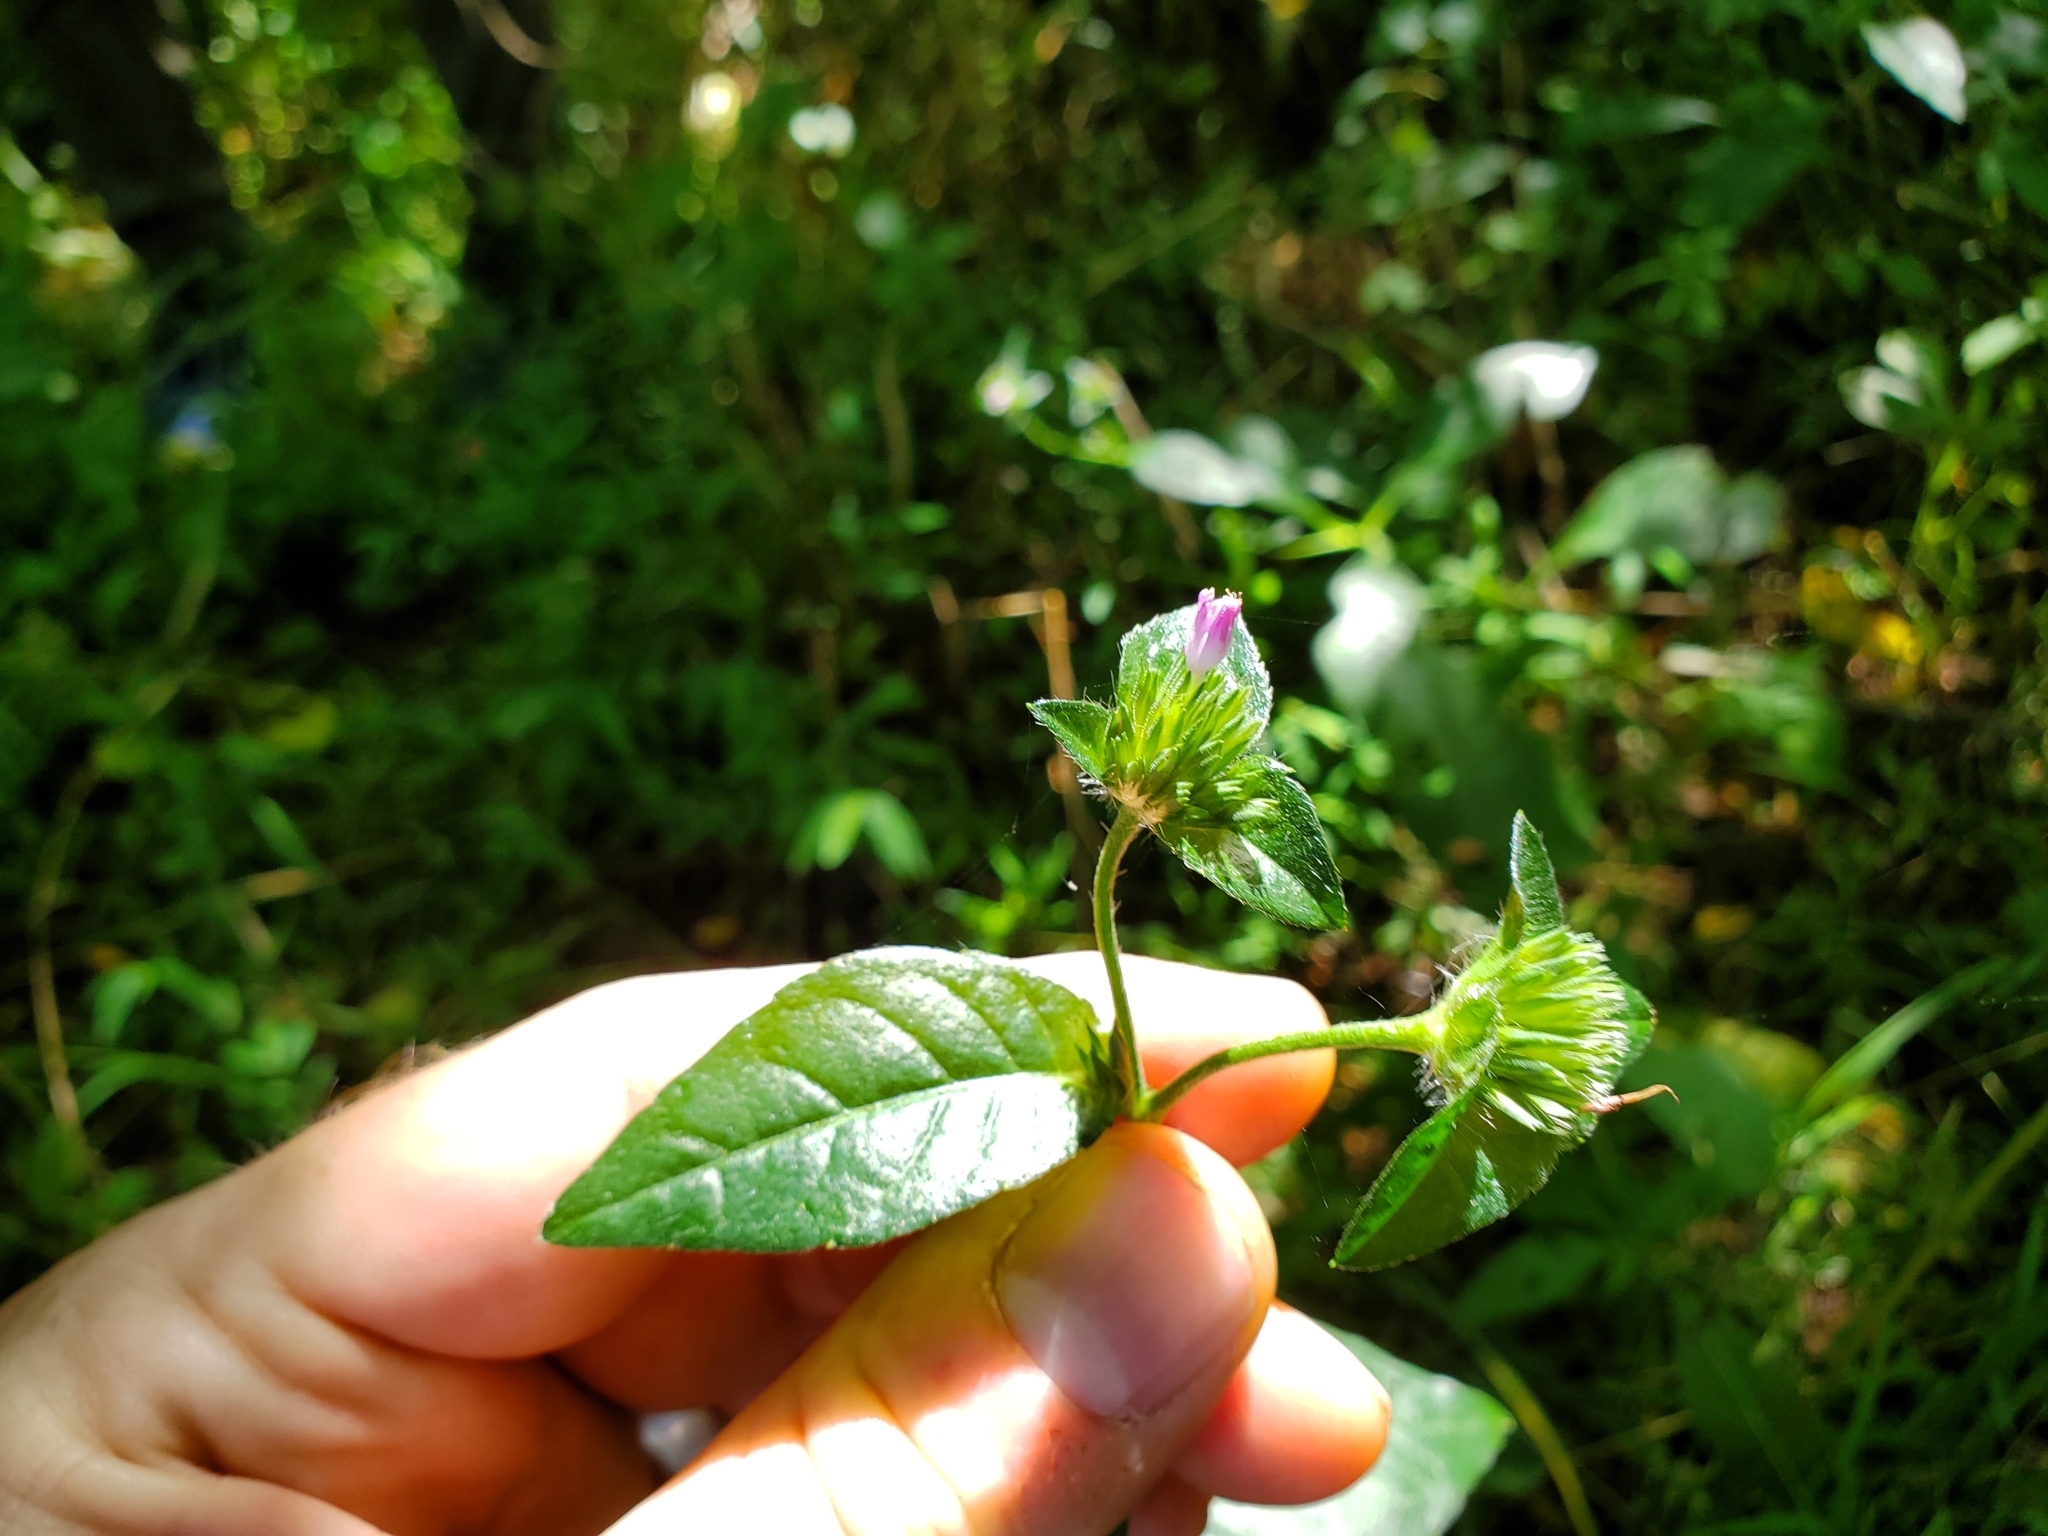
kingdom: Plantae
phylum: Tracheophyta
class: Magnoliopsida
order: Asterales
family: Asteraceae
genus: Elephantopus
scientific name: Elephantopus carolinianus
